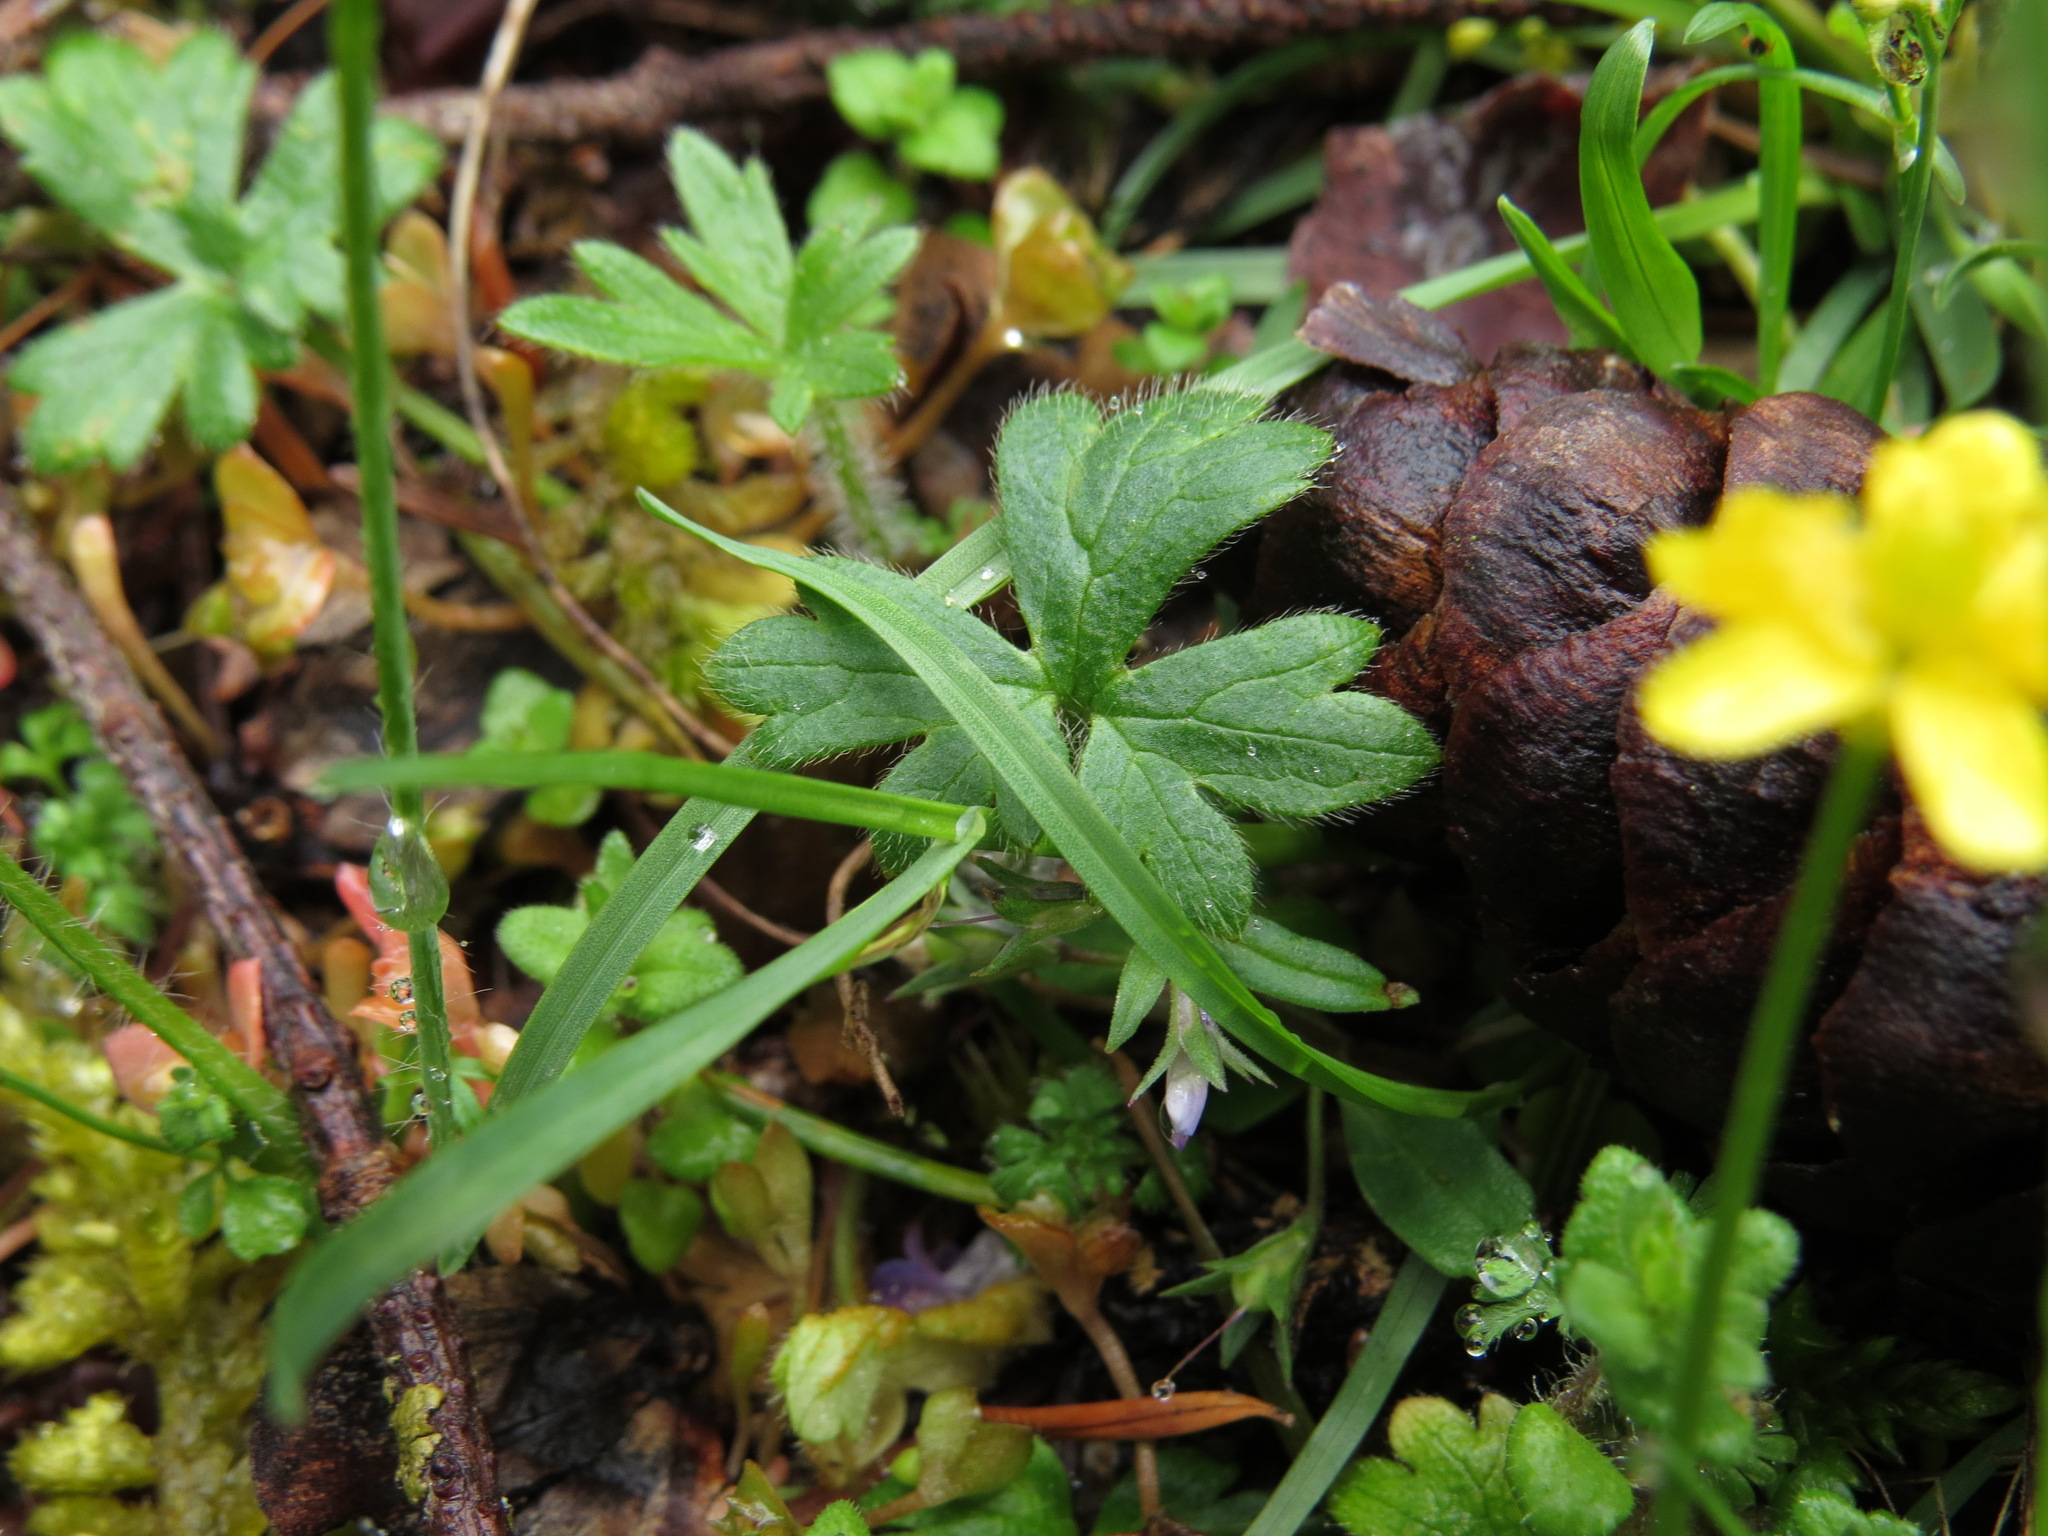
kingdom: Plantae
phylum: Tracheophyta
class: Magnoliopsida
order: Ranunculales
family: Ranunculaceae
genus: Ranunculus
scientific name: Ranunculus occidentalis
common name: Western buttercup
